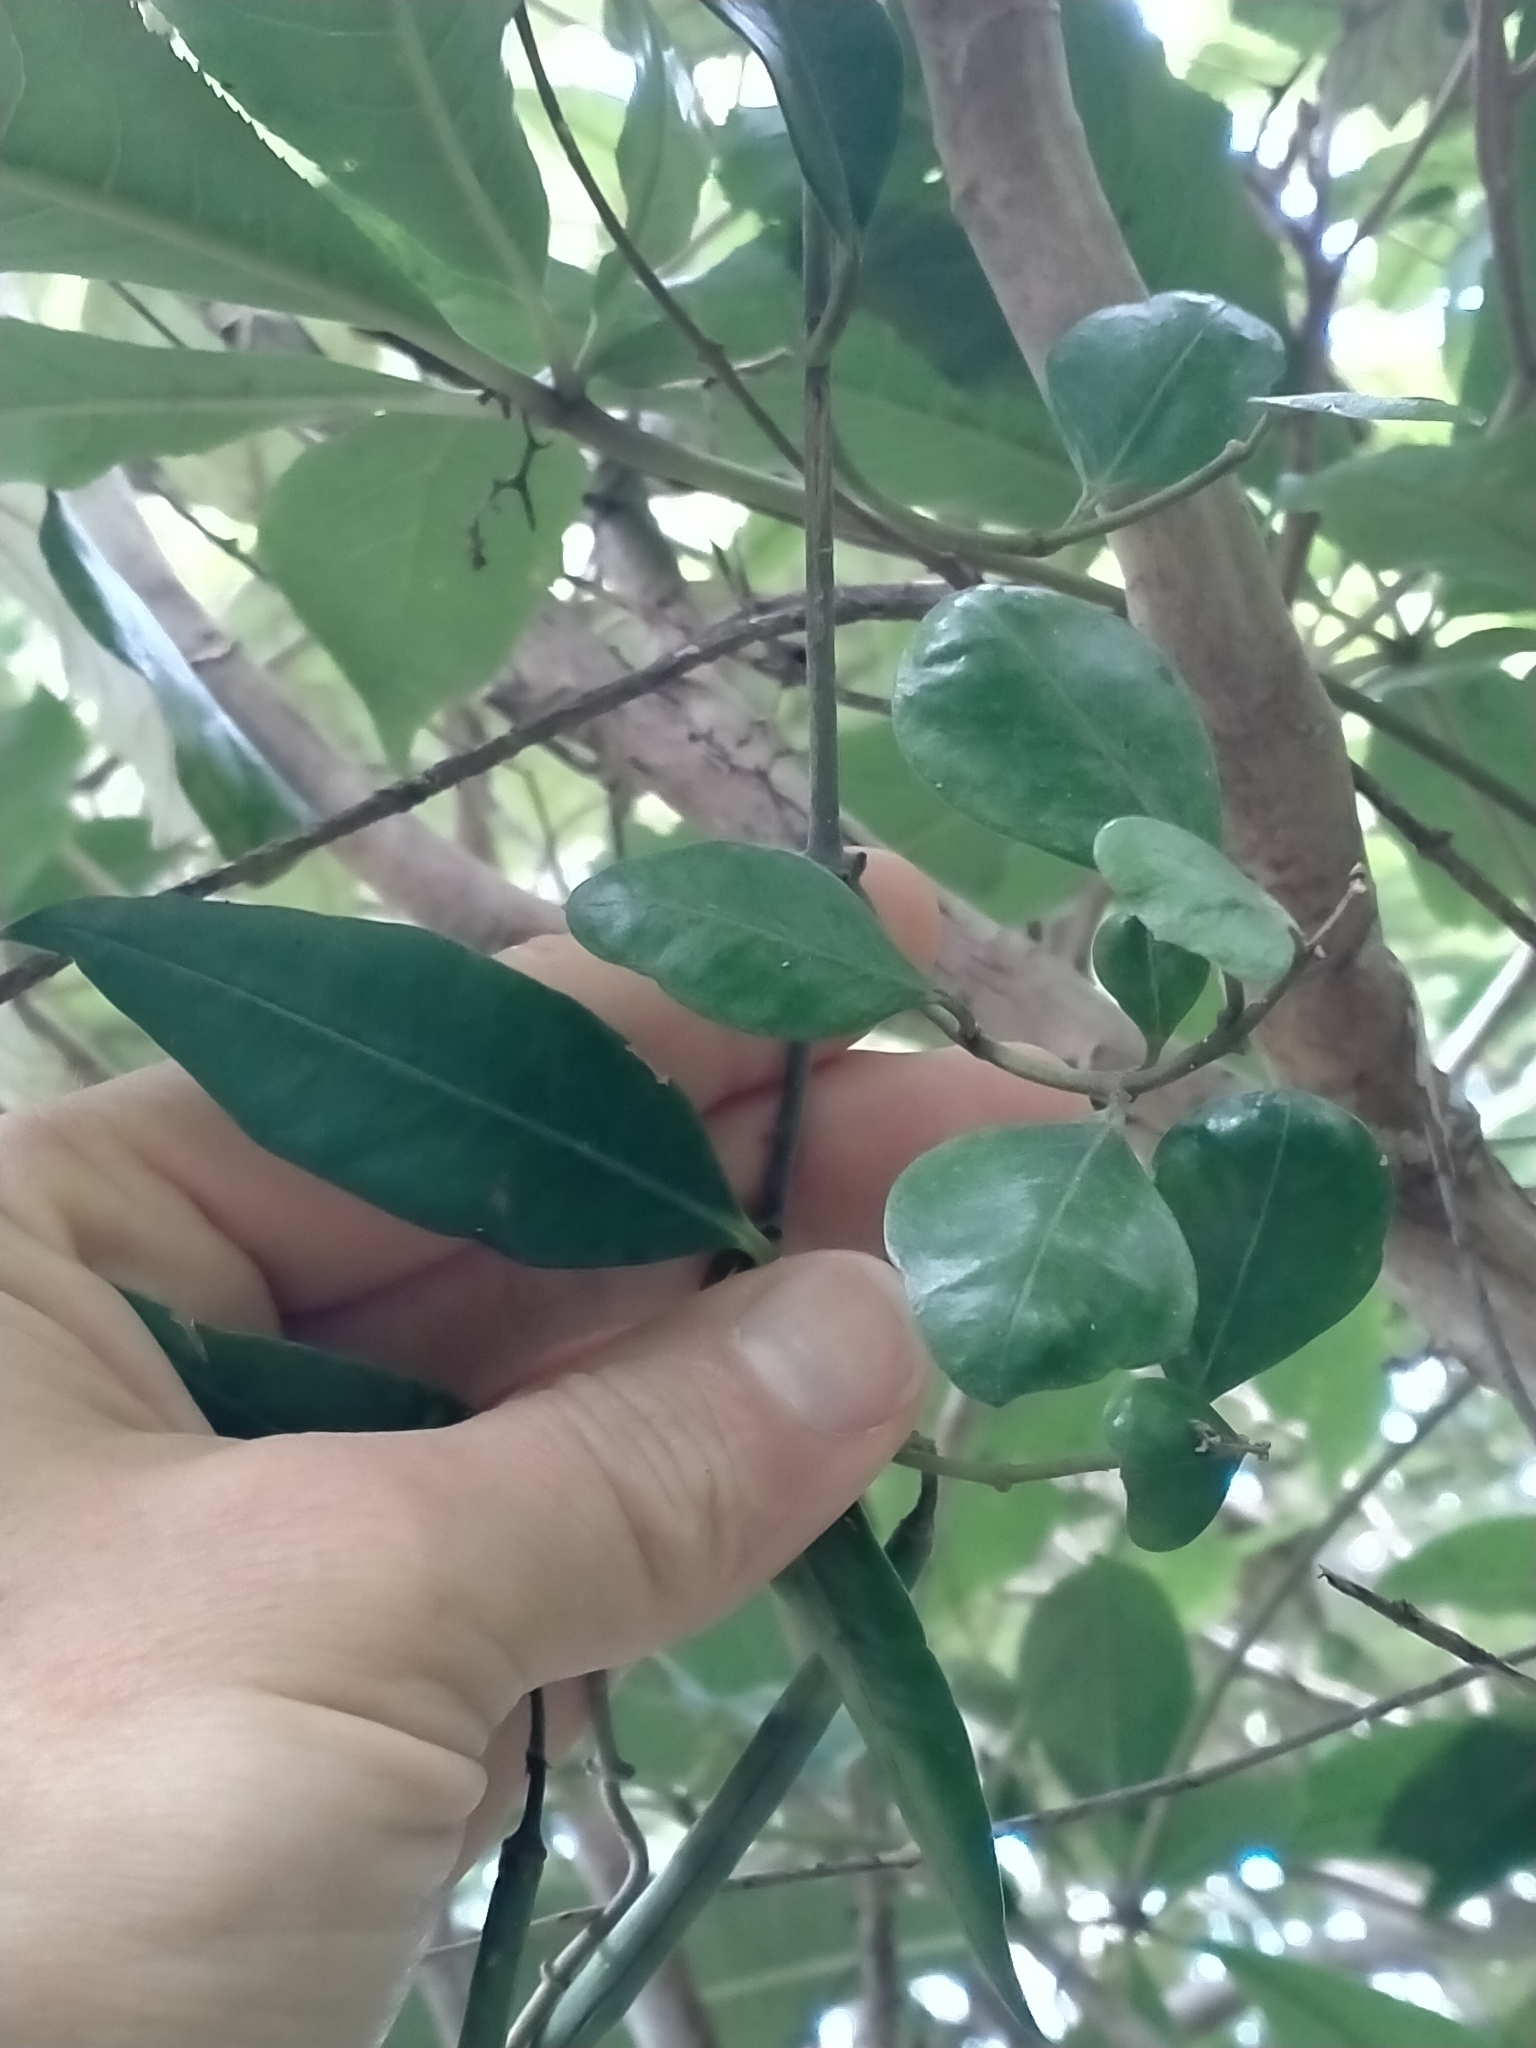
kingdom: Plantae
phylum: Tracheophyta
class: Magnoliopsida
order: Gentianales
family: Apocynaceae
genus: Parsonsia
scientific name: Parsonsia heterophylla
